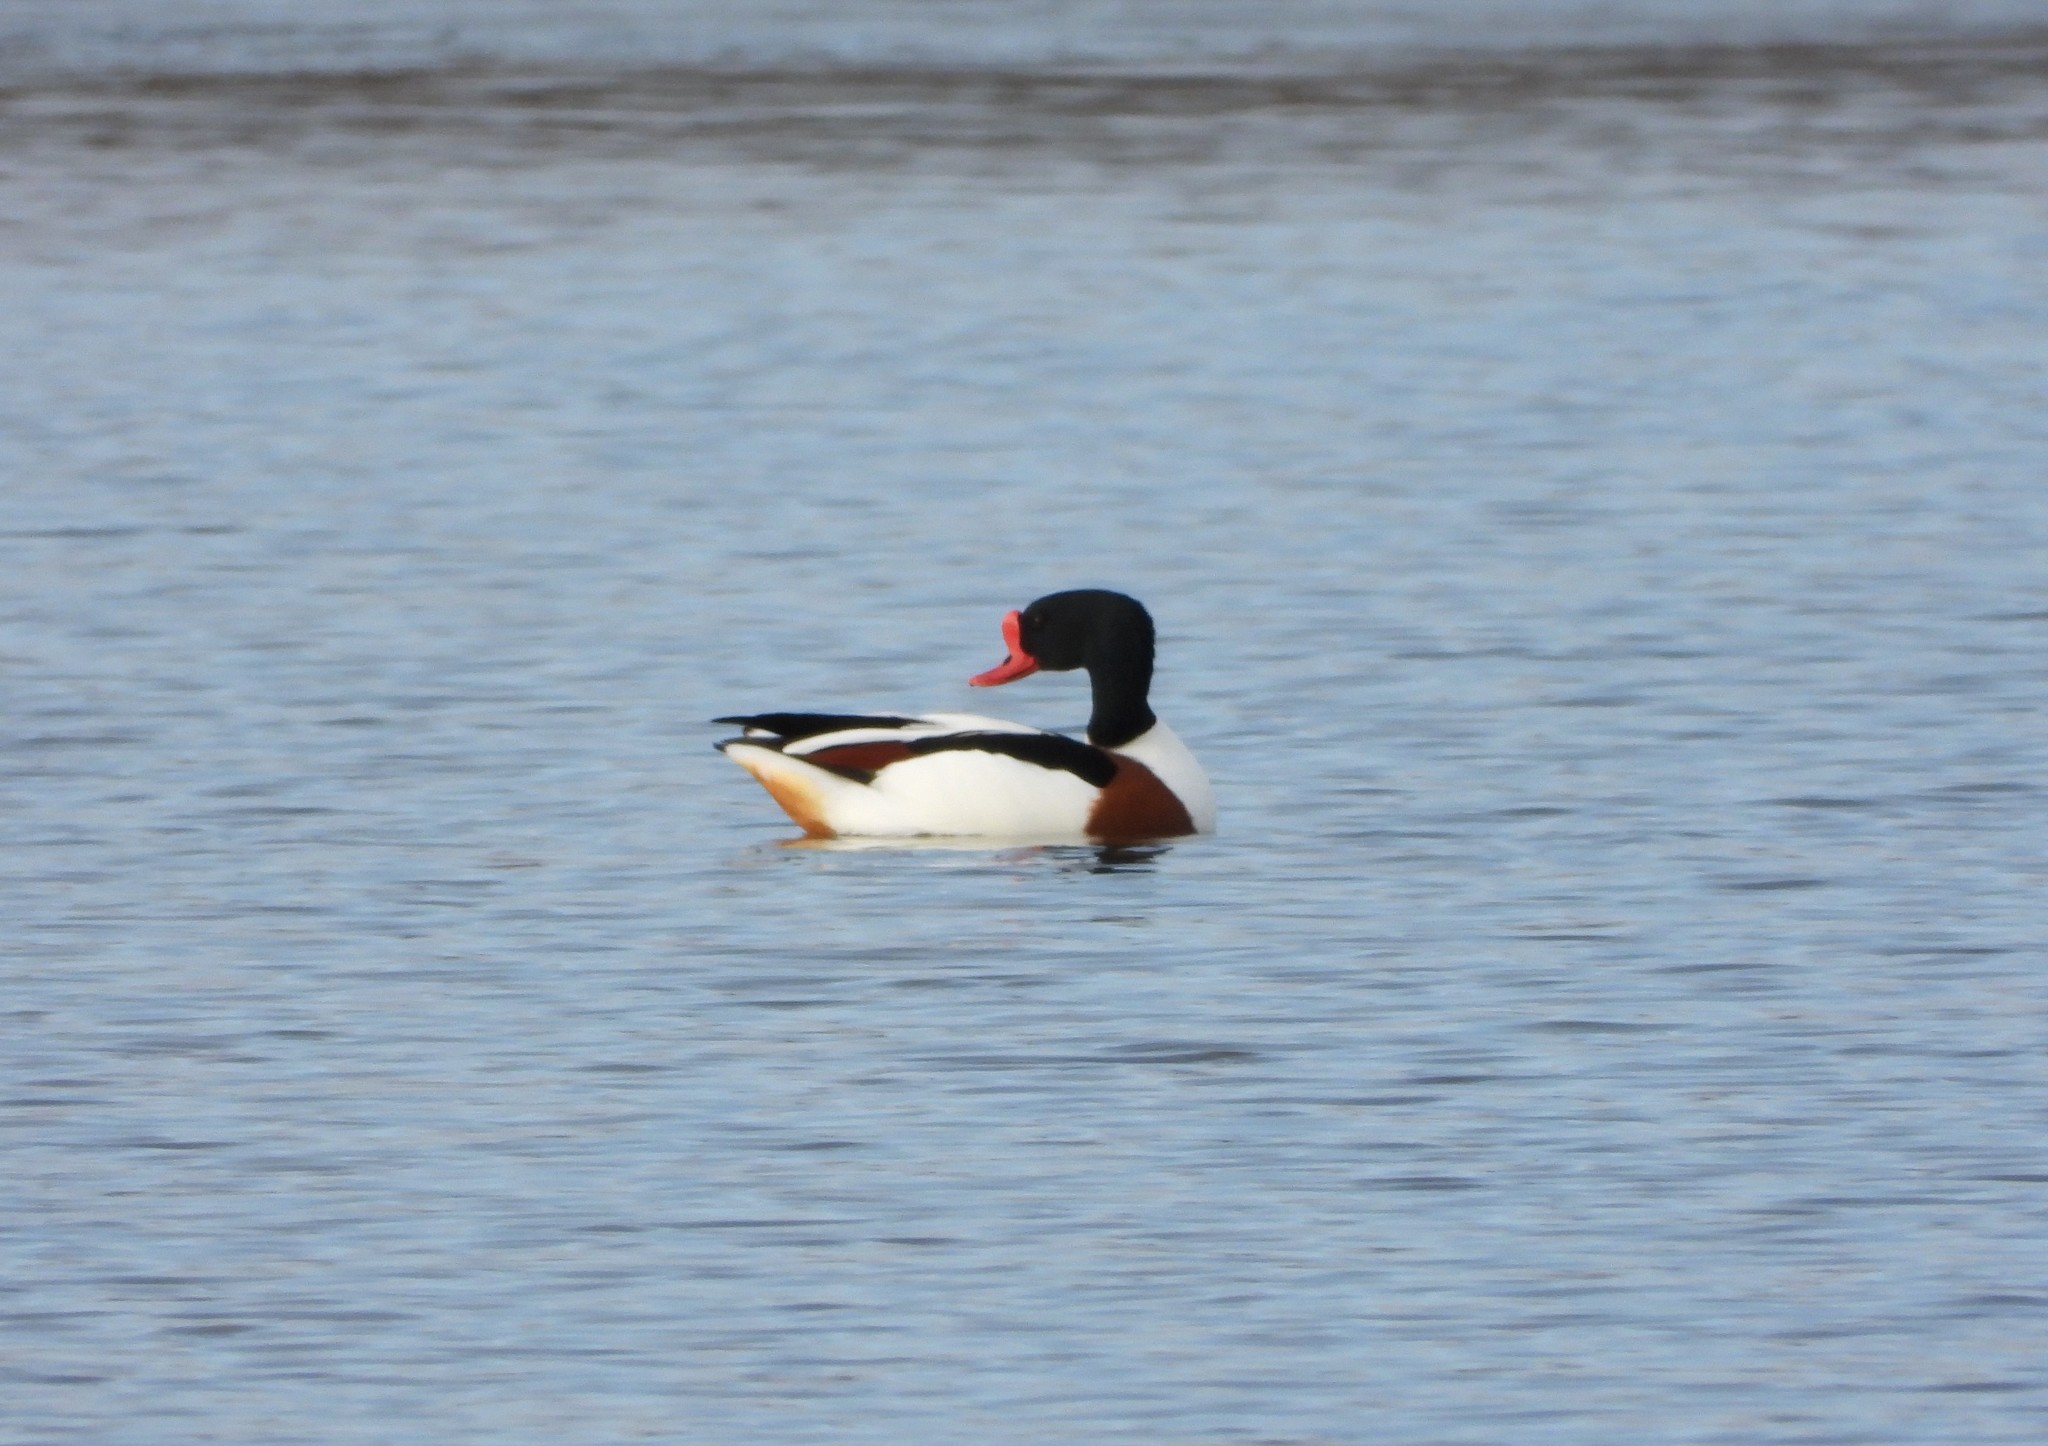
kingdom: Animalia
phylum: Chordata
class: Aves
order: Anseriformes
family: Anatidae
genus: Tadorna
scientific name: Tadorna tadorna
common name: Common shelduck
